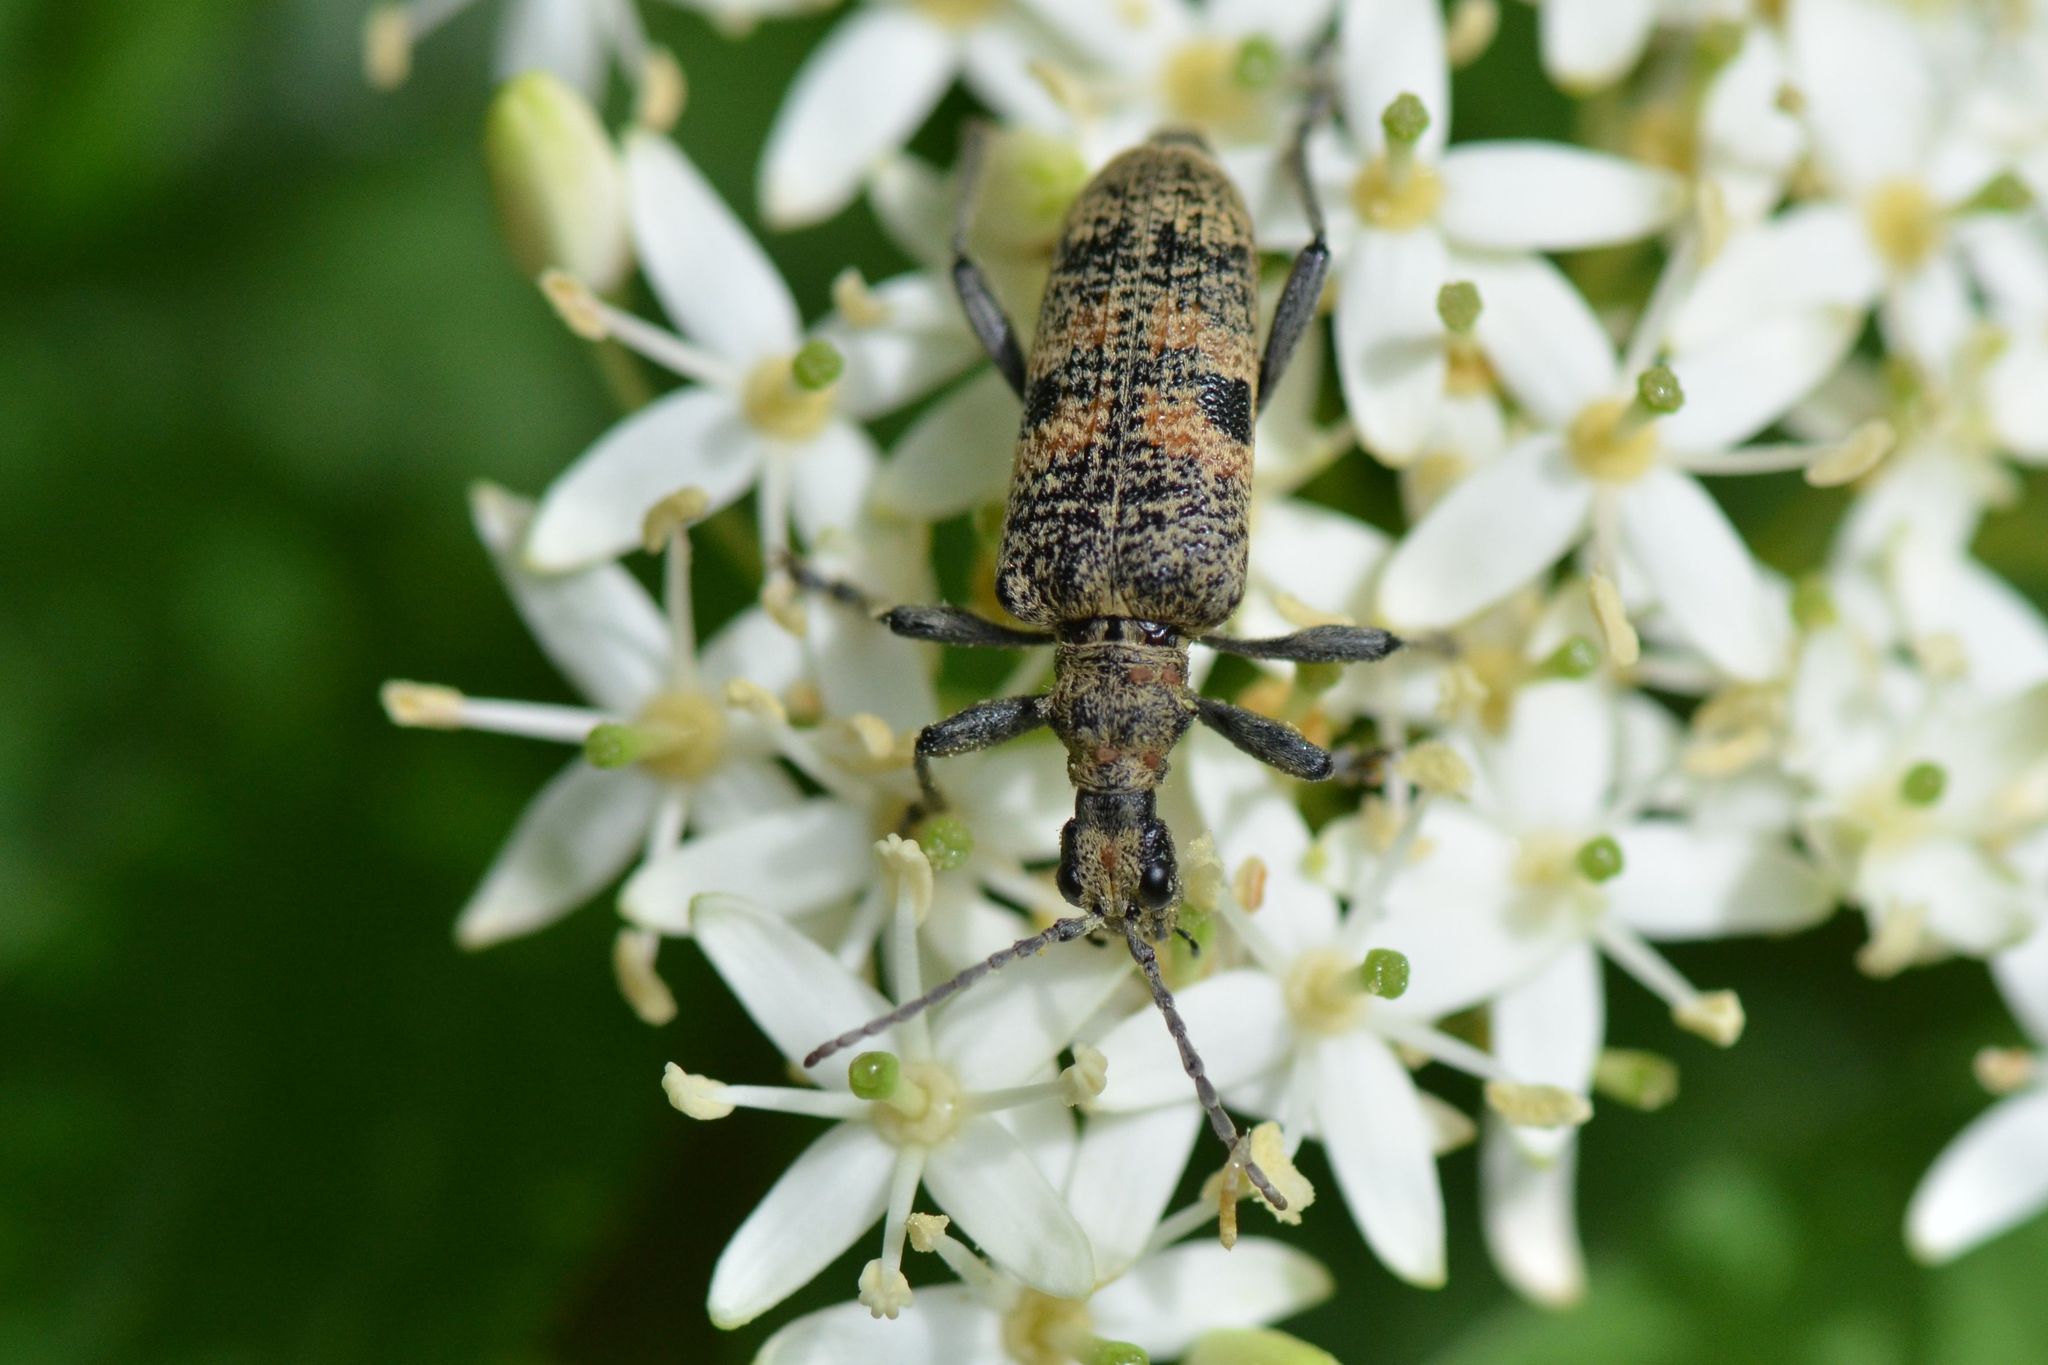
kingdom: Animalia
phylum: Arthropoda
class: Insecta
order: Coleoptera
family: Cerambycidae
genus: Rhagium
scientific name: Rhagium mordax
